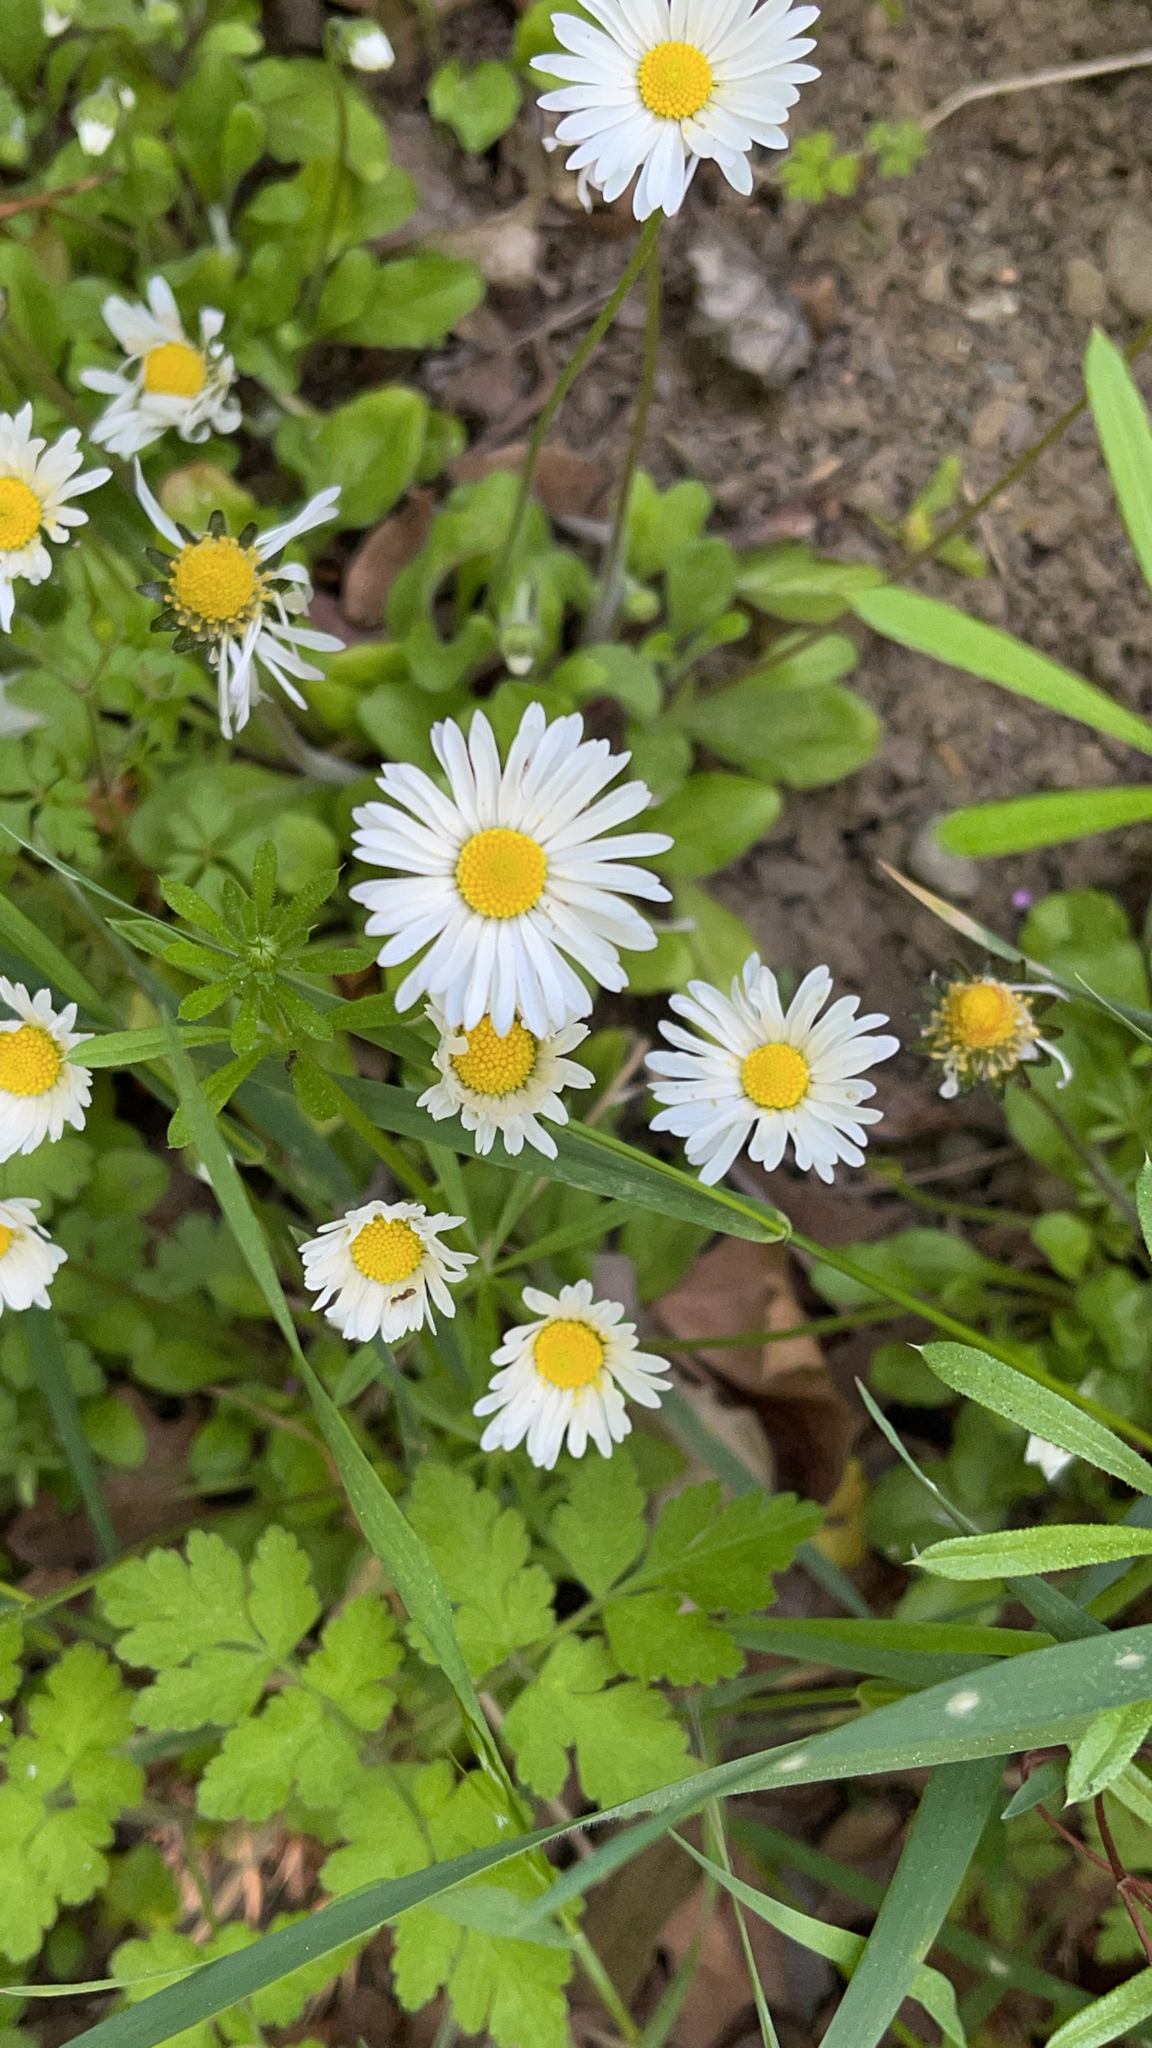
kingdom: Plantae
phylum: Tracheophyta
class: Magnoliopsida
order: Asterales
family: Asteraceae
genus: Bellis
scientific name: Bellis perennis
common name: Lawndaisy
